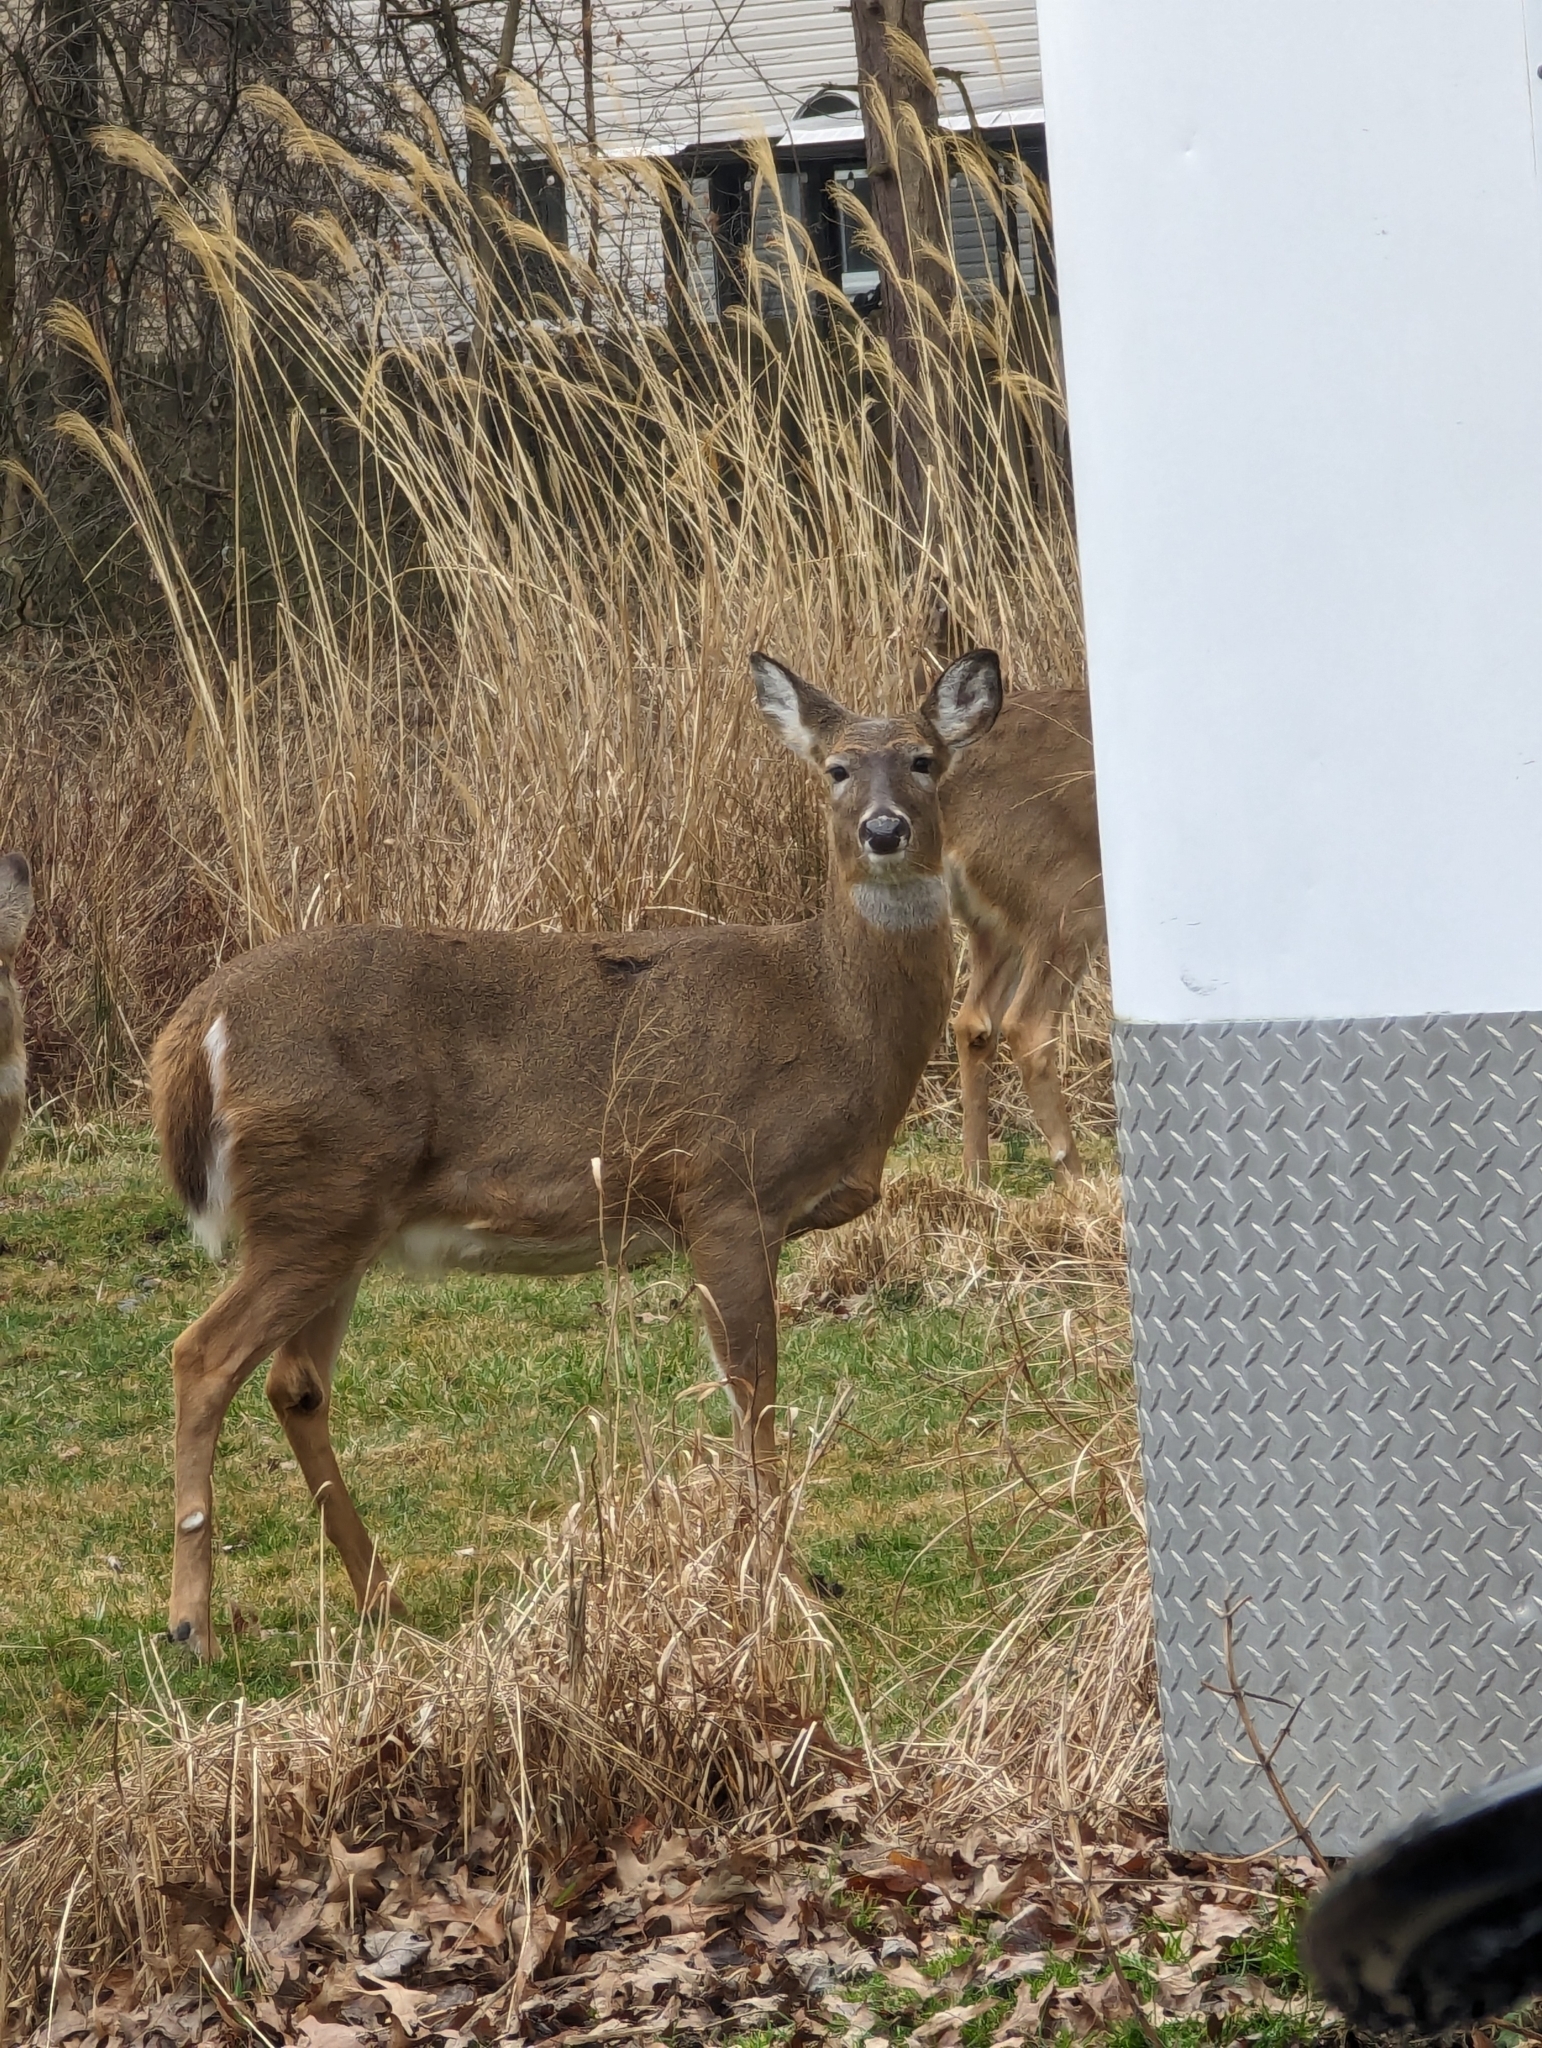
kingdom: Animalia
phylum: Chordata
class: Mammalia
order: Artiodactyla
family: Cervidae
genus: Odocoileus
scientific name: Odocoileus virginianus
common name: White-tailed deer
